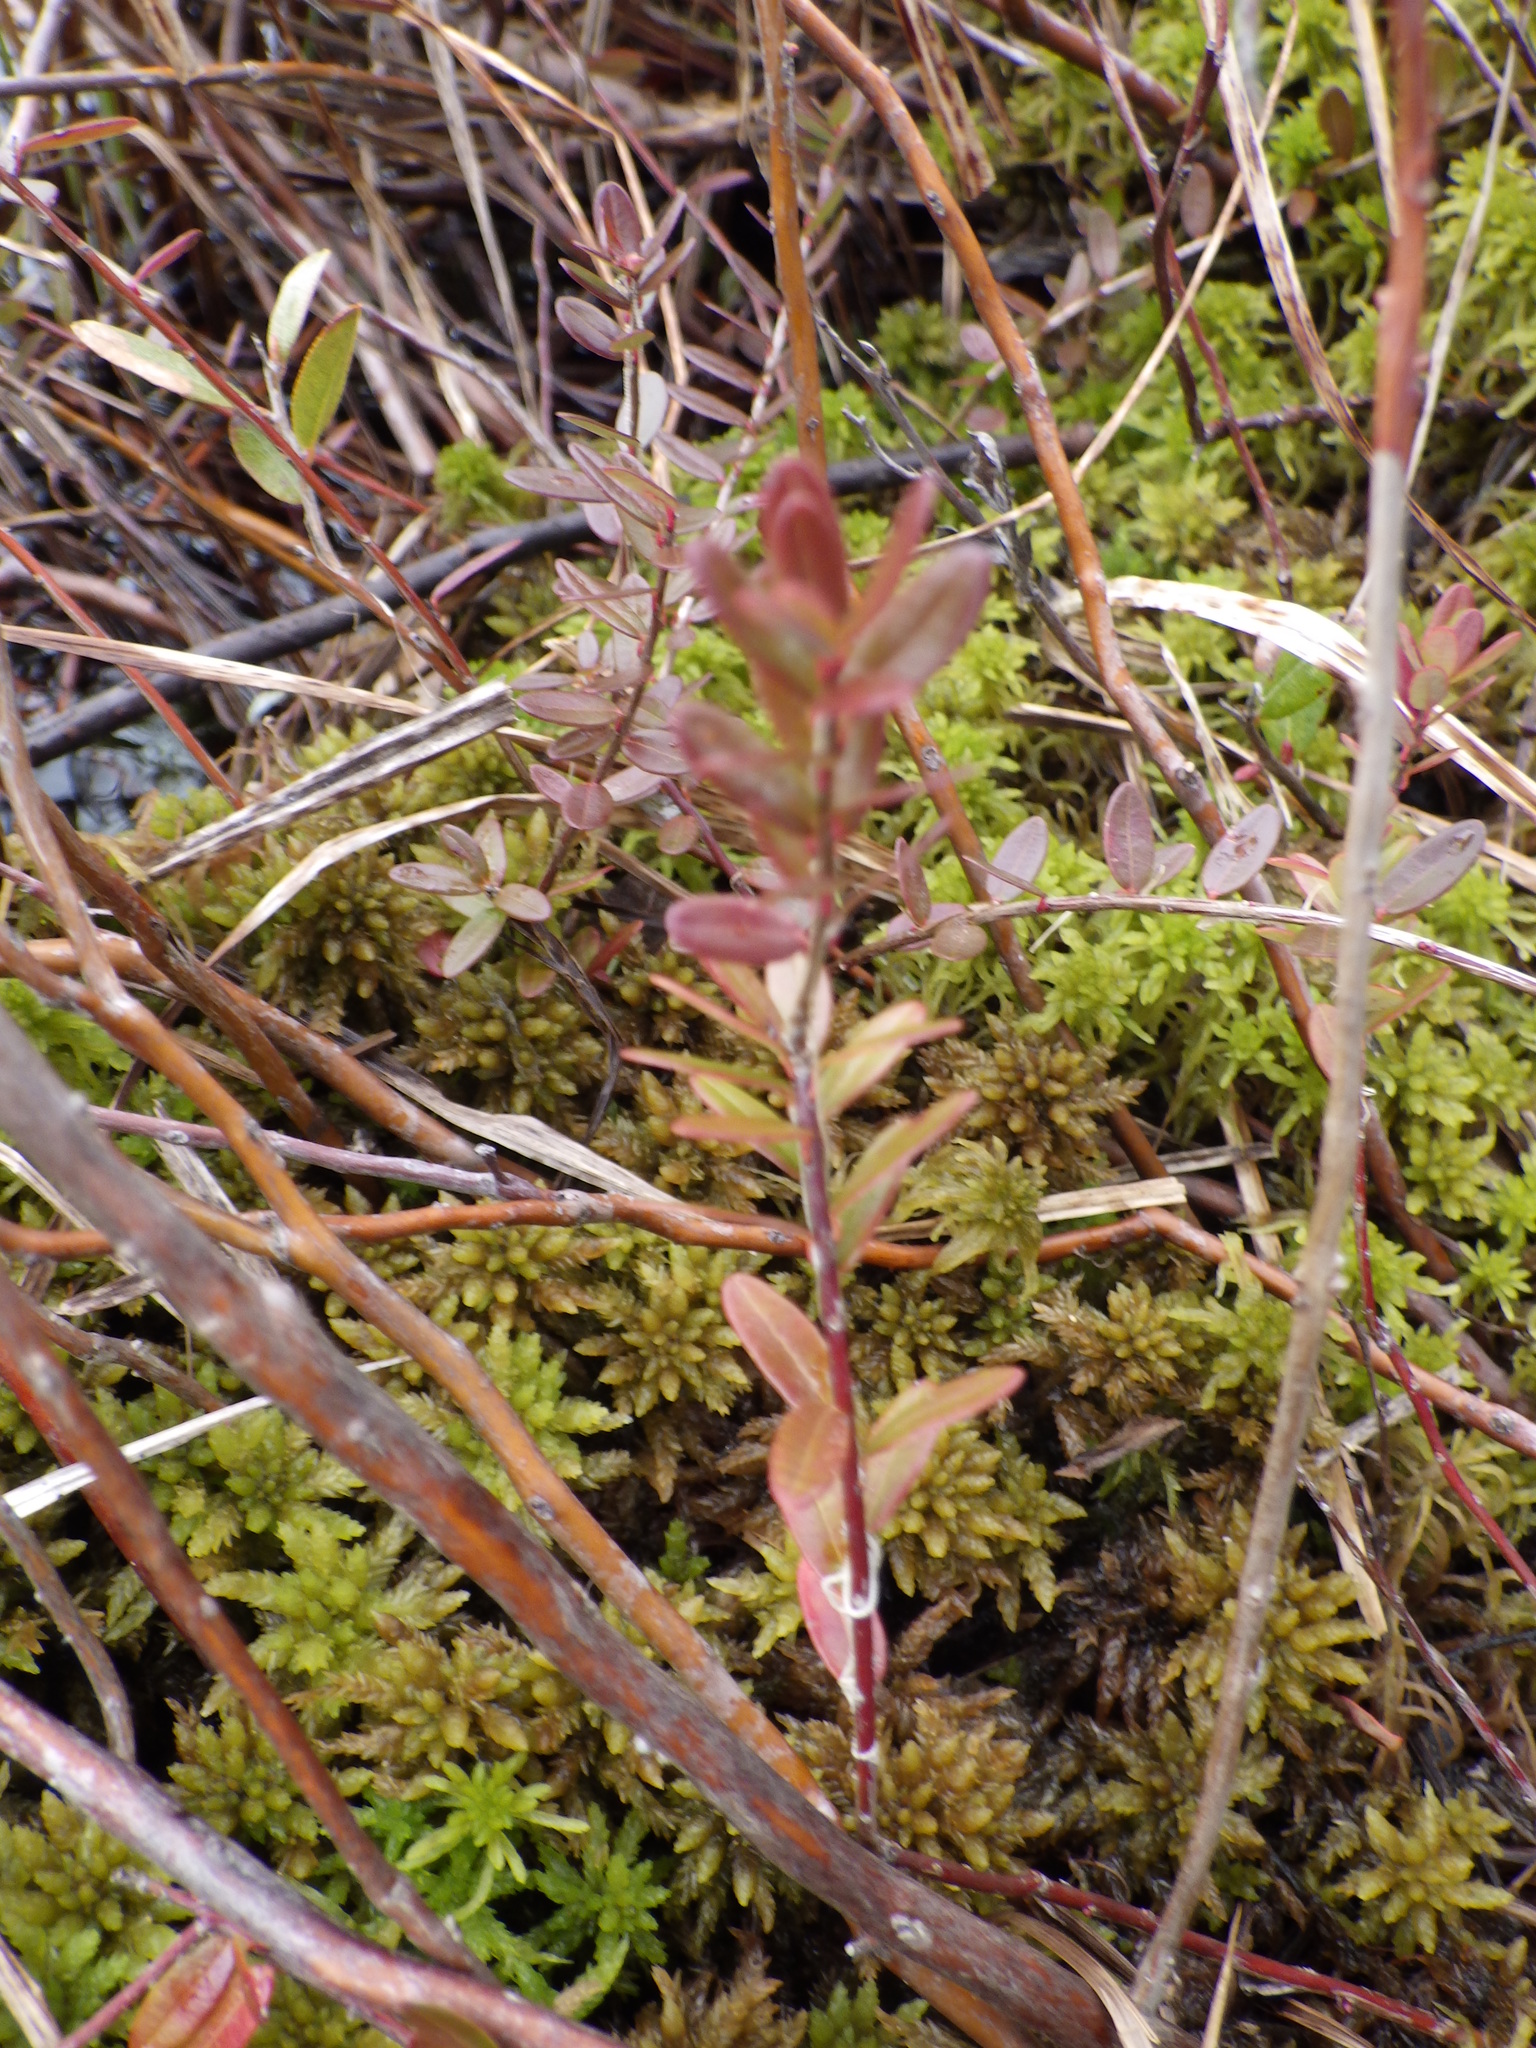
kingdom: Plantae
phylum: Tracheophyta
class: Magnoliopsida
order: Ericales
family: Ericaceae
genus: Vaccinium
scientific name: Vaccinium macrocarpon
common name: American cranberry
